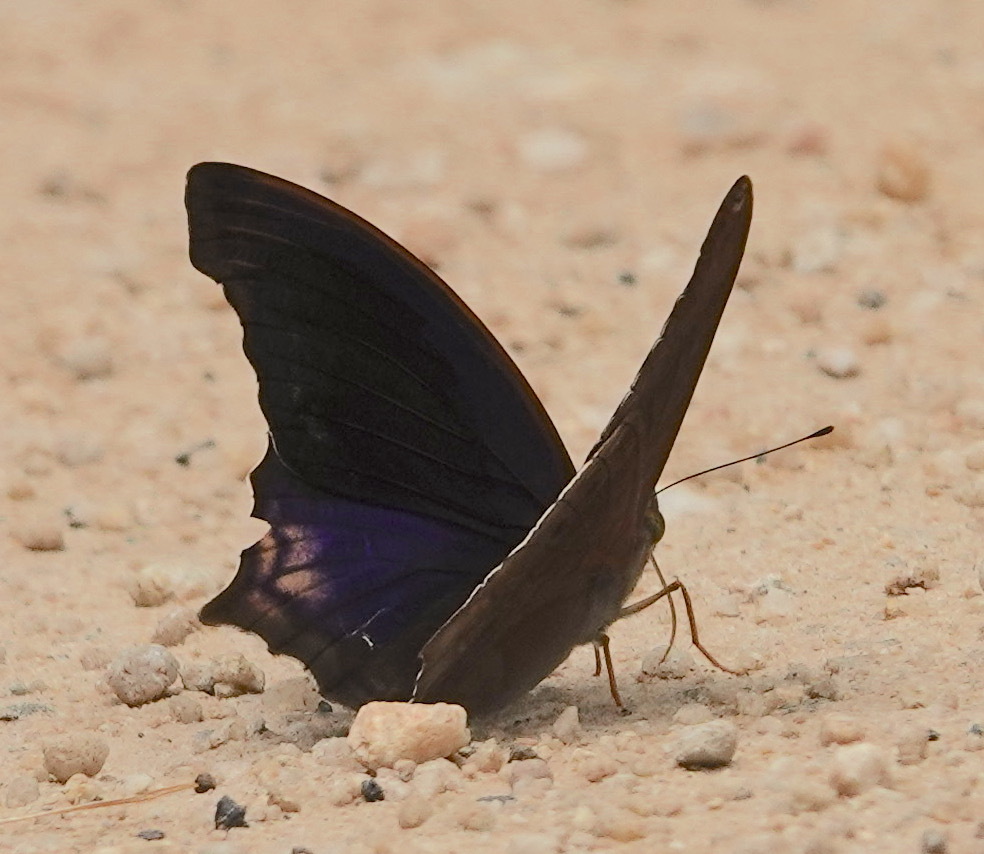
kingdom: Animalia
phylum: Arthropoda
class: Insecta
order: Lepidoptera
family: Nymphalidae
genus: Terinos
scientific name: Terinos atlita
